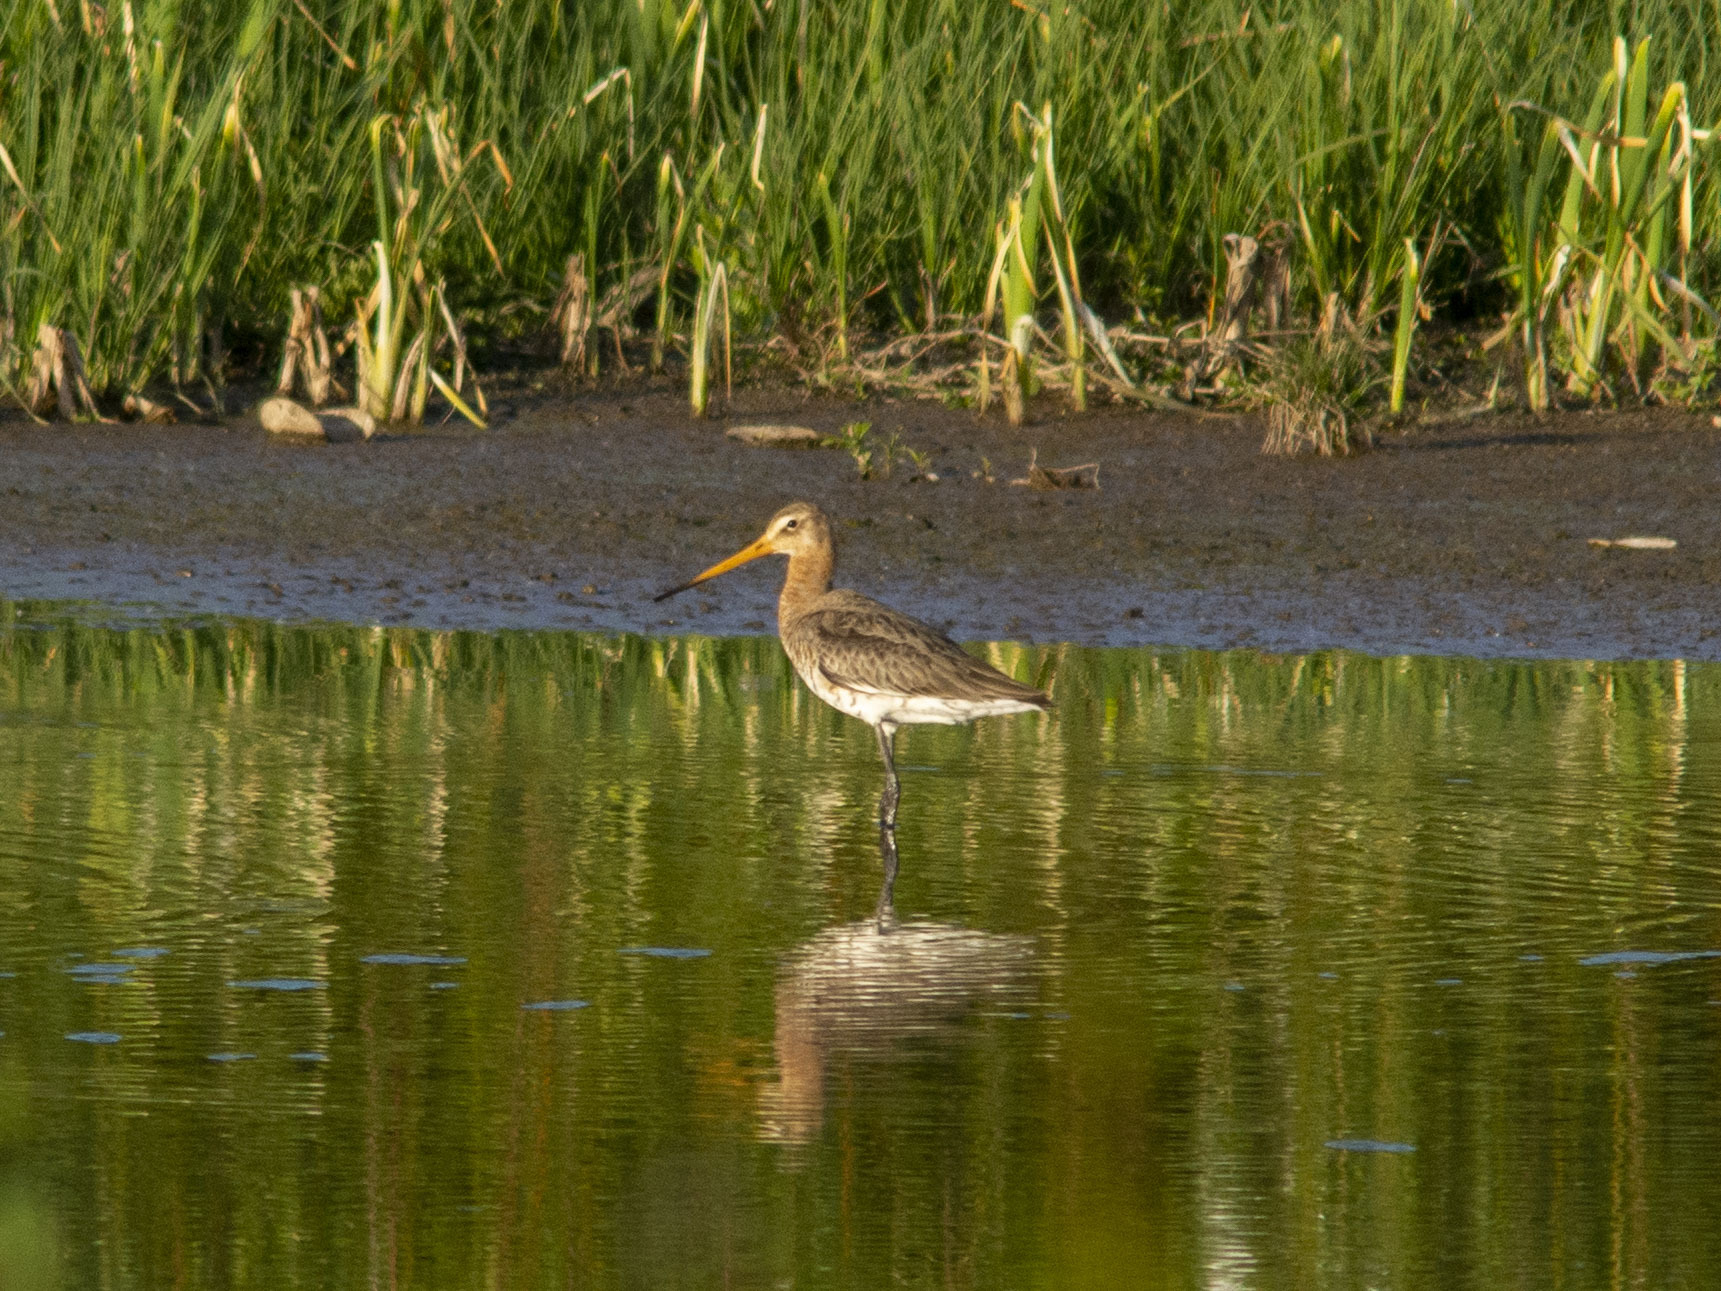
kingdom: Animalia
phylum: Chordata
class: Aves
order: Charadriiformes
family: Scolopacidae
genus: Limosa
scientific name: Limosa limosa
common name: Black-tailed godwit
